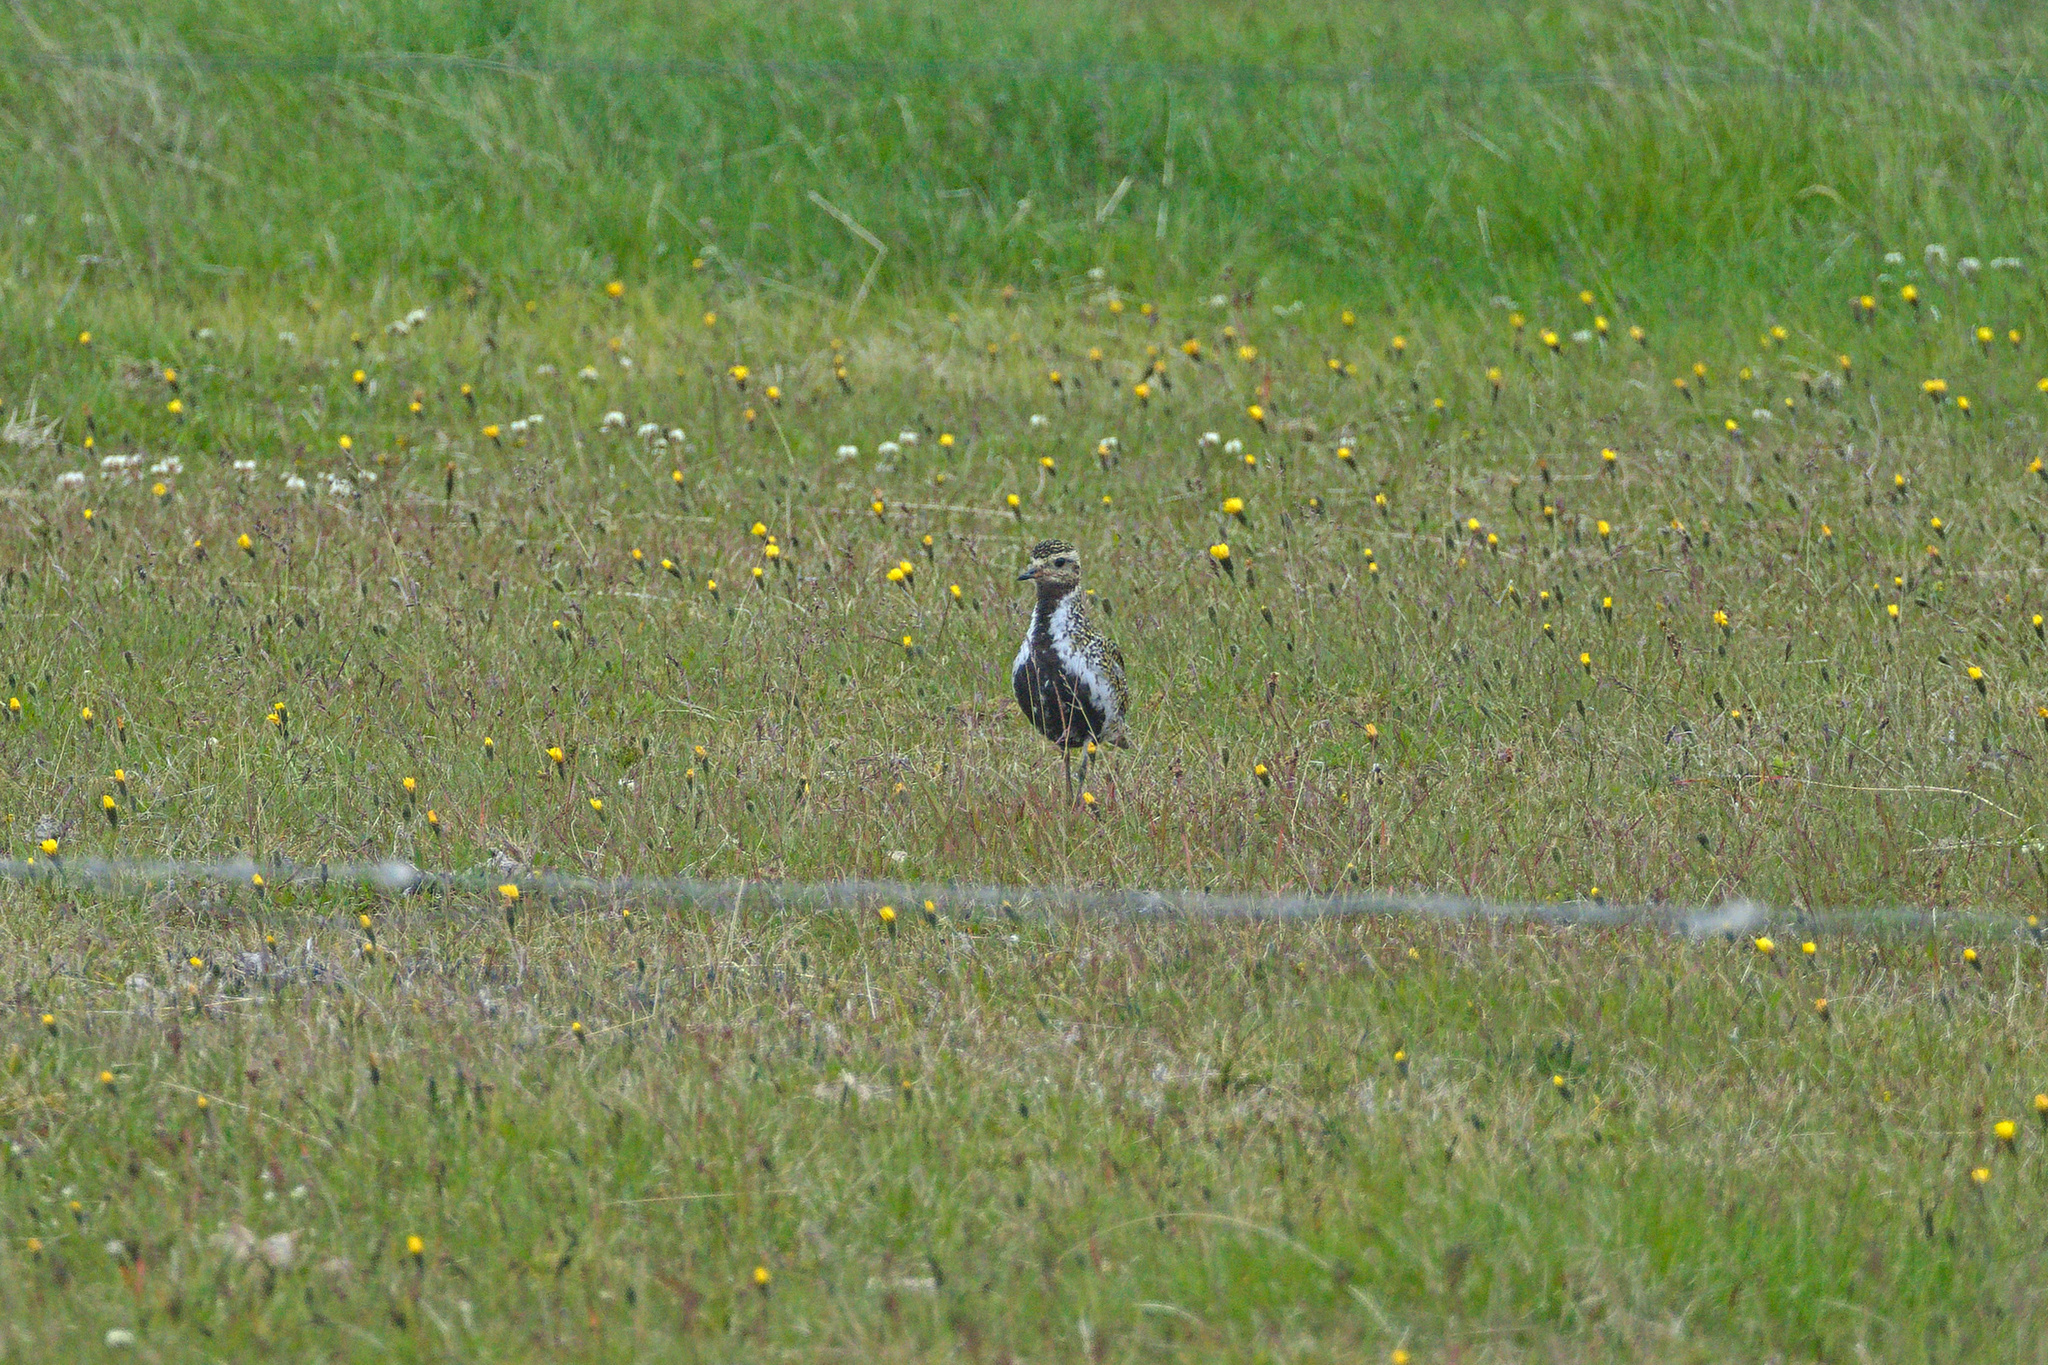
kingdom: Animalia
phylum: Chordata
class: Aves
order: Charadriiformes
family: Charadriidae
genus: Pluvialis
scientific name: Pluvialis apricaria
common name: European golden plover
